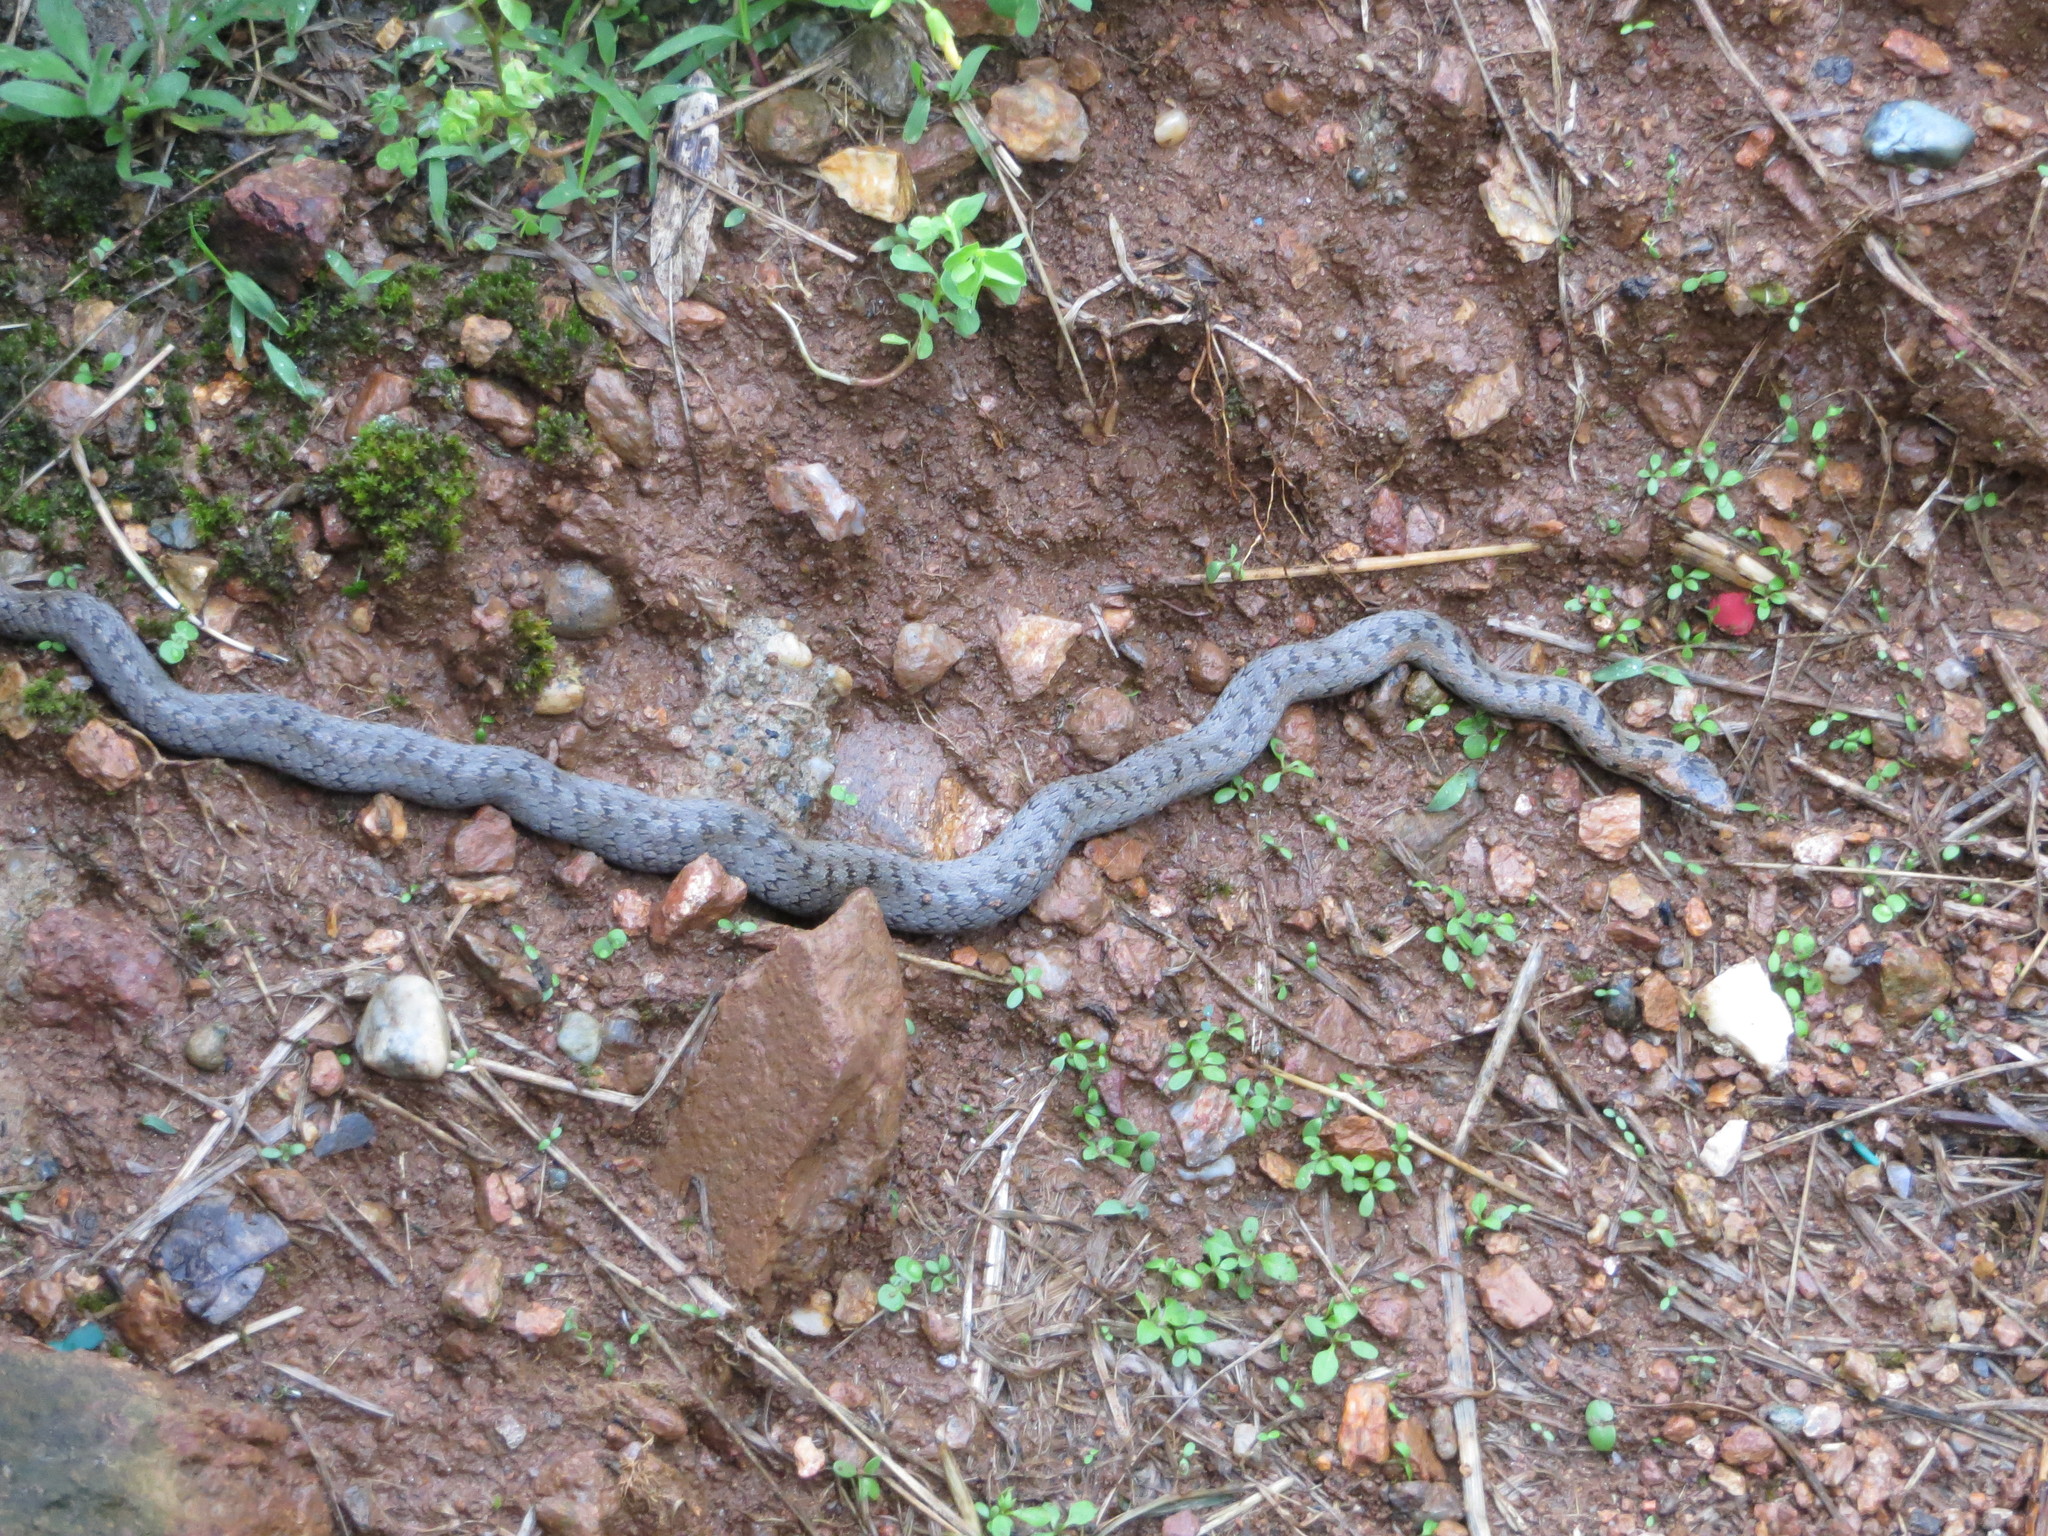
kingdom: Animalia
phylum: Chordata
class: Squamata
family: Colubridae
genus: Coronella
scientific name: Coronella austriaca
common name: Smooth snake
